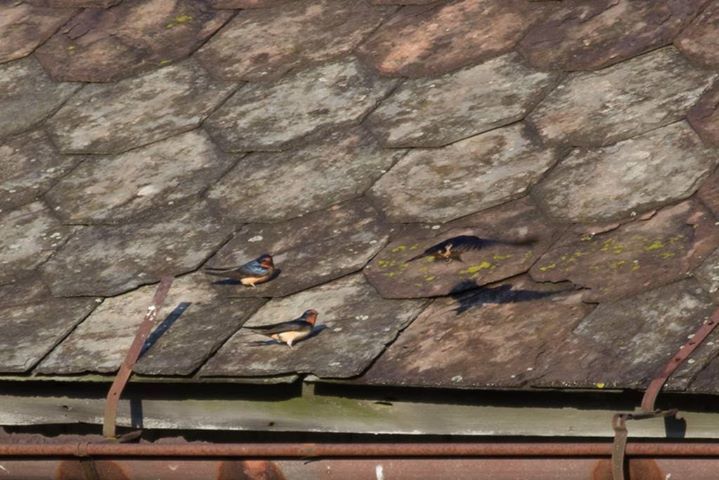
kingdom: Animalia
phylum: Chordata
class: Aves
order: Passeriformes
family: Hirundinidae
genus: Hirundo
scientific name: Hirundo rustica
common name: Barn swallow
